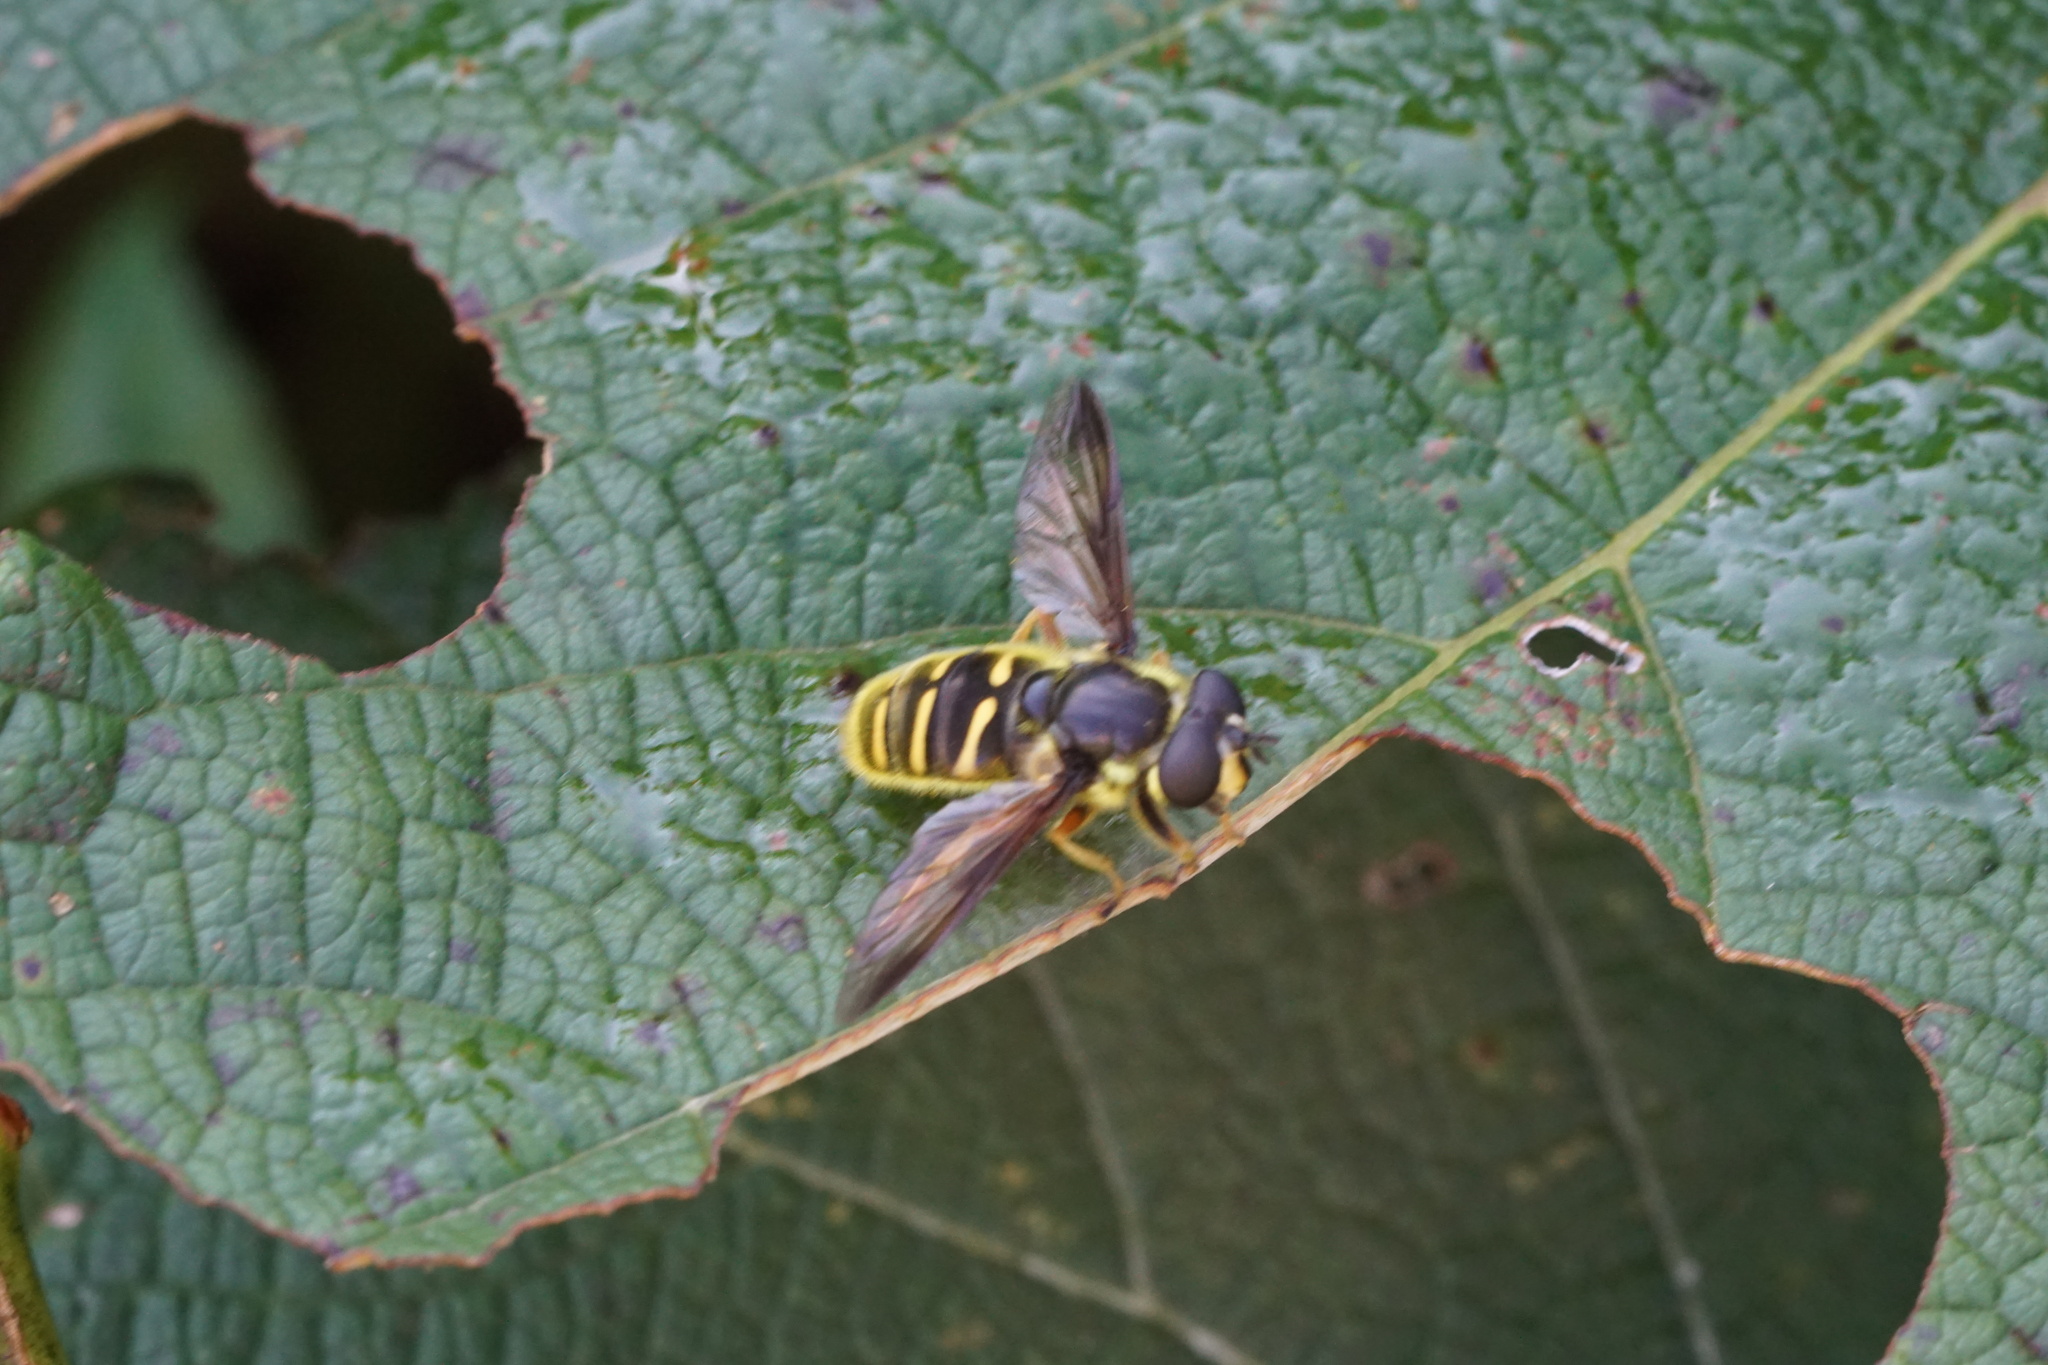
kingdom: Animalia
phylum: Arthropoda
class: Insecta
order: Diptera
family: Syrphidae
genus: Sericomyia
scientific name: Sericomyia chrysotoxoides
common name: Oblique-banded pond fly
